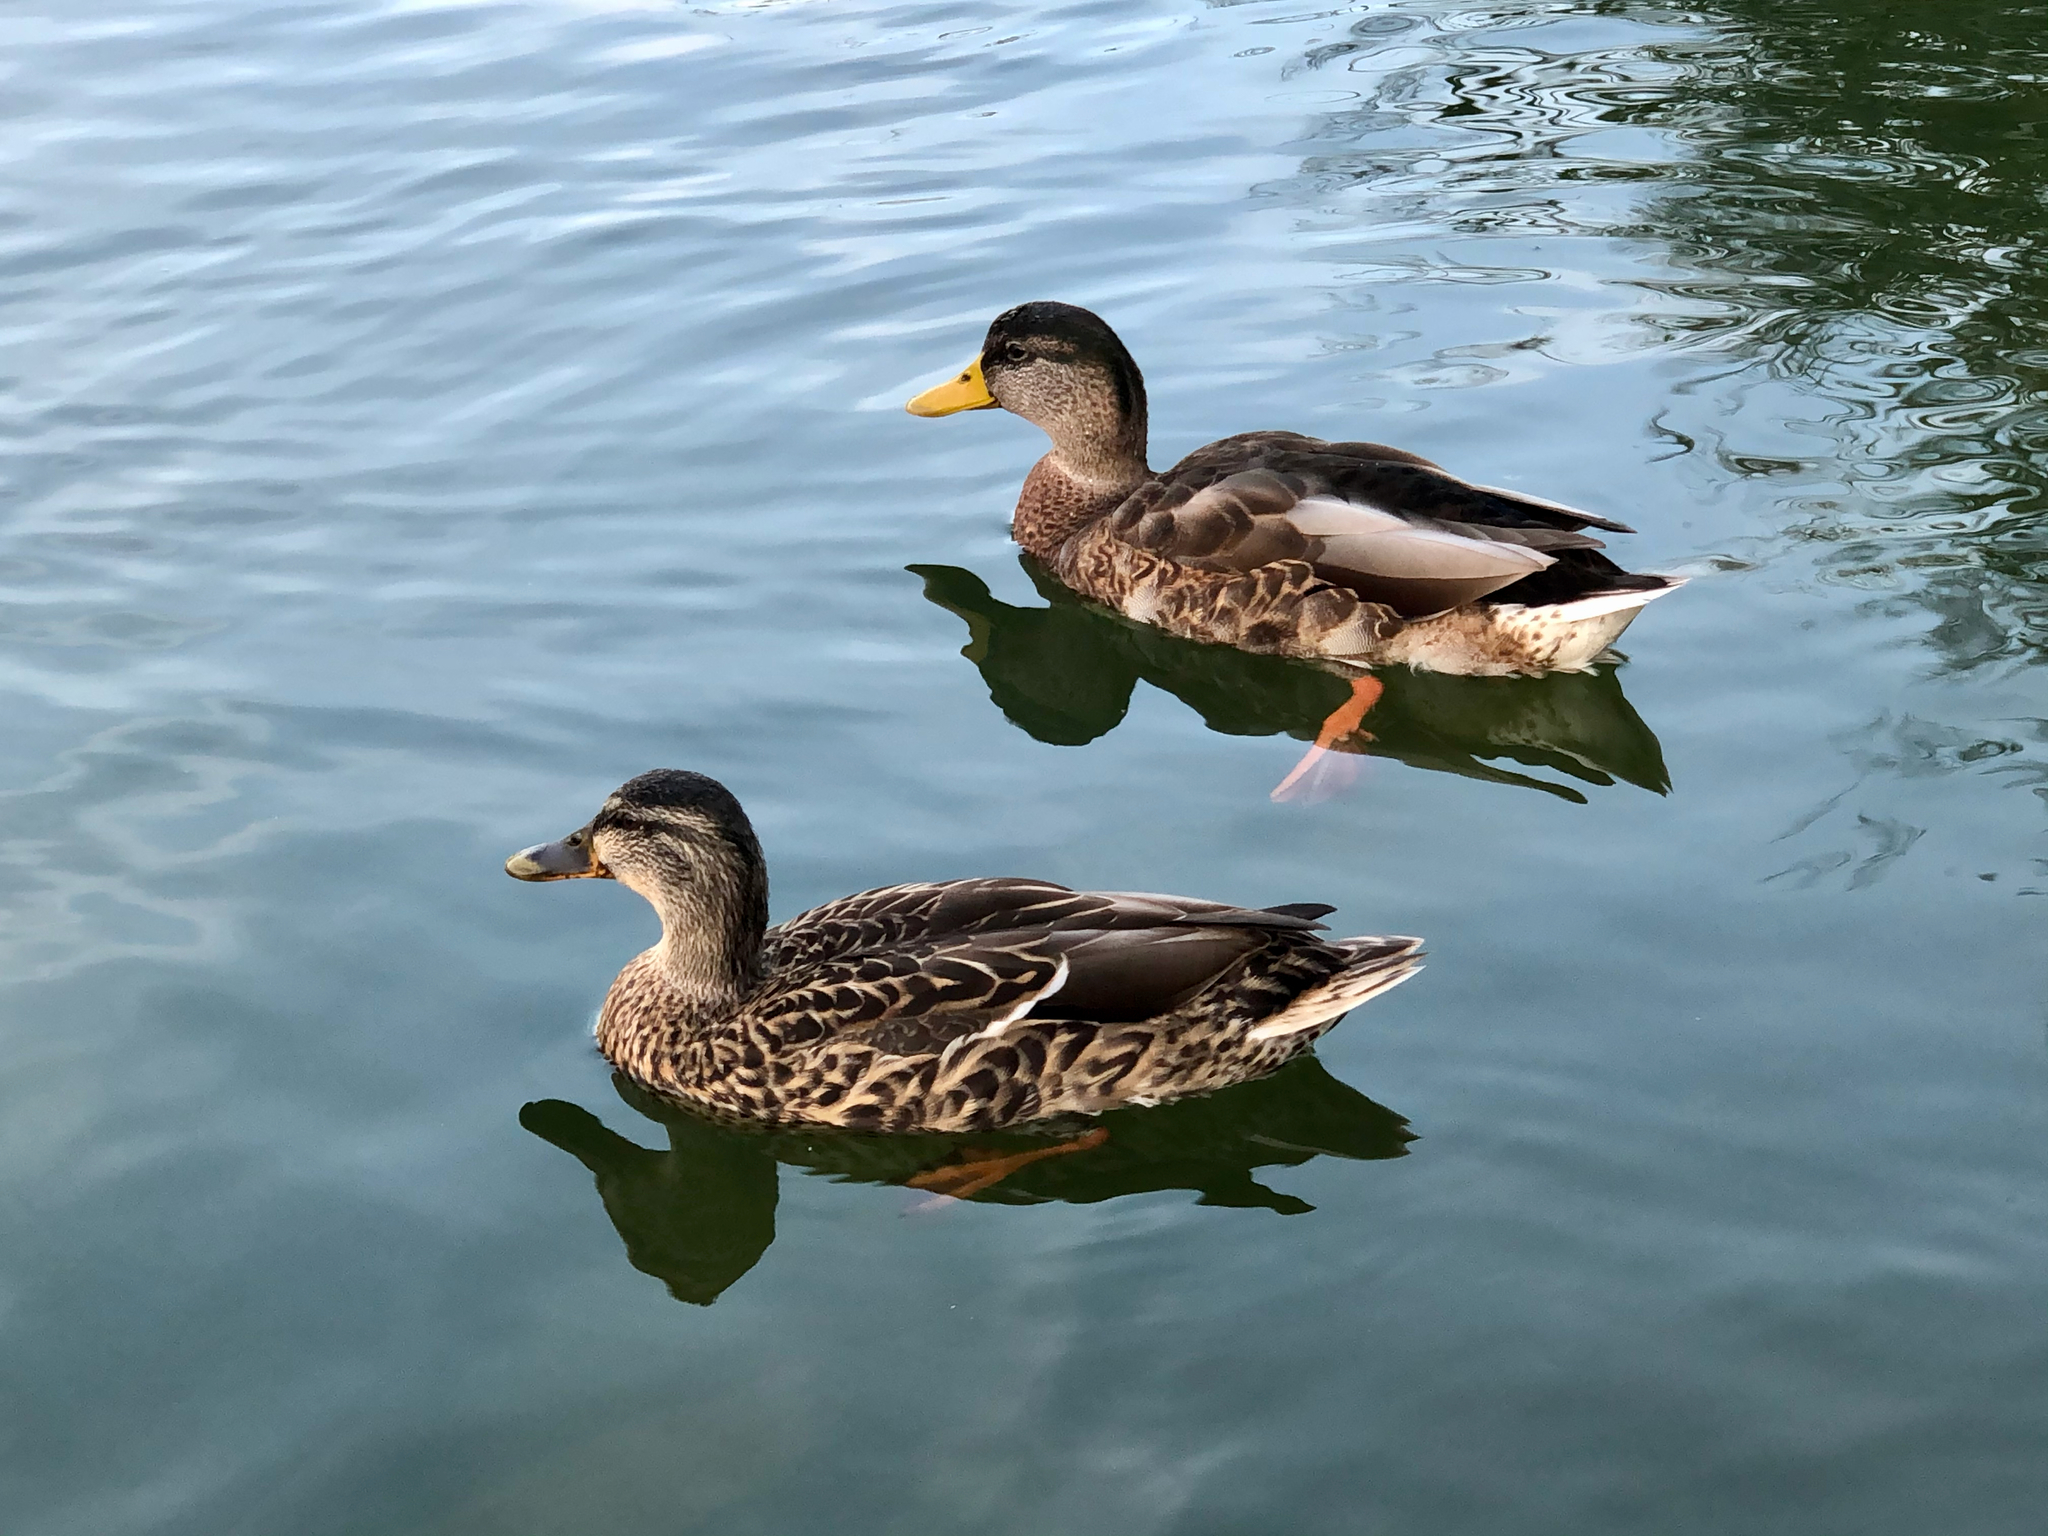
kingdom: Animalia
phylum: Chordata
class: Aves
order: Anseriformes
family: Anatidae
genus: Anas
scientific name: Anas platyrhynchos
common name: Mallard
